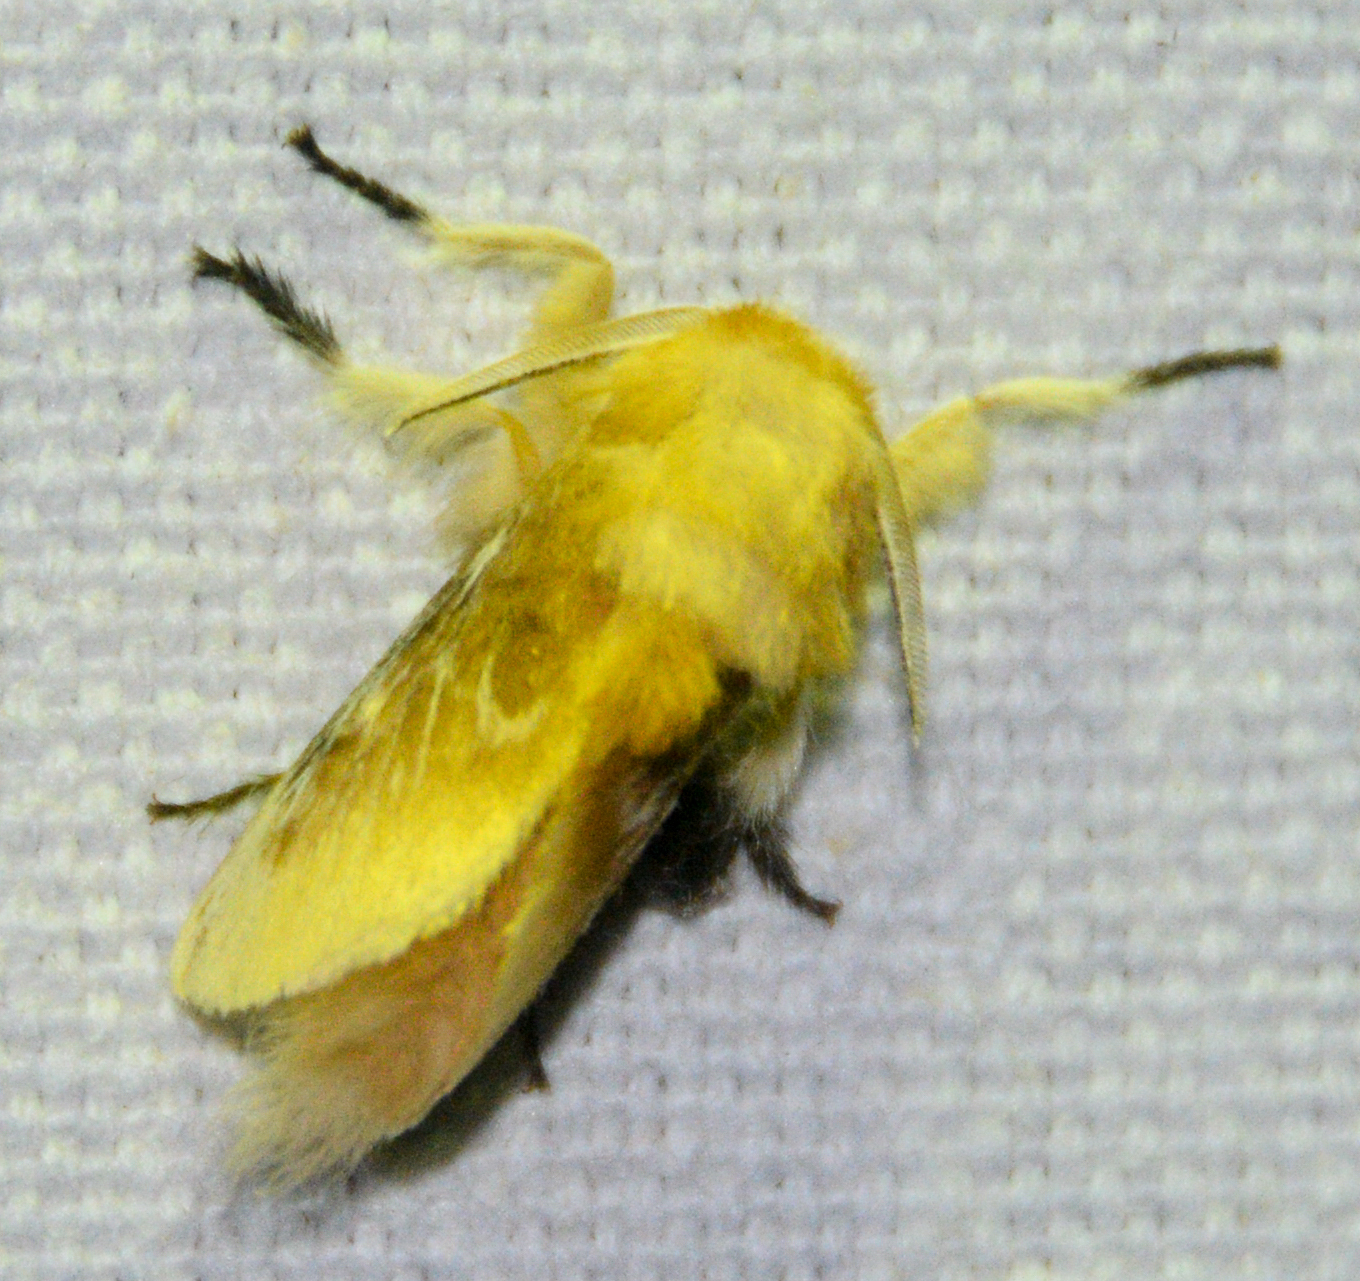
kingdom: Animalia
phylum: Arthropoda
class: Insecta
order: Lepidoptera
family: Megalopygidae
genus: Megalopyge
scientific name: Megalopyge opercularis
